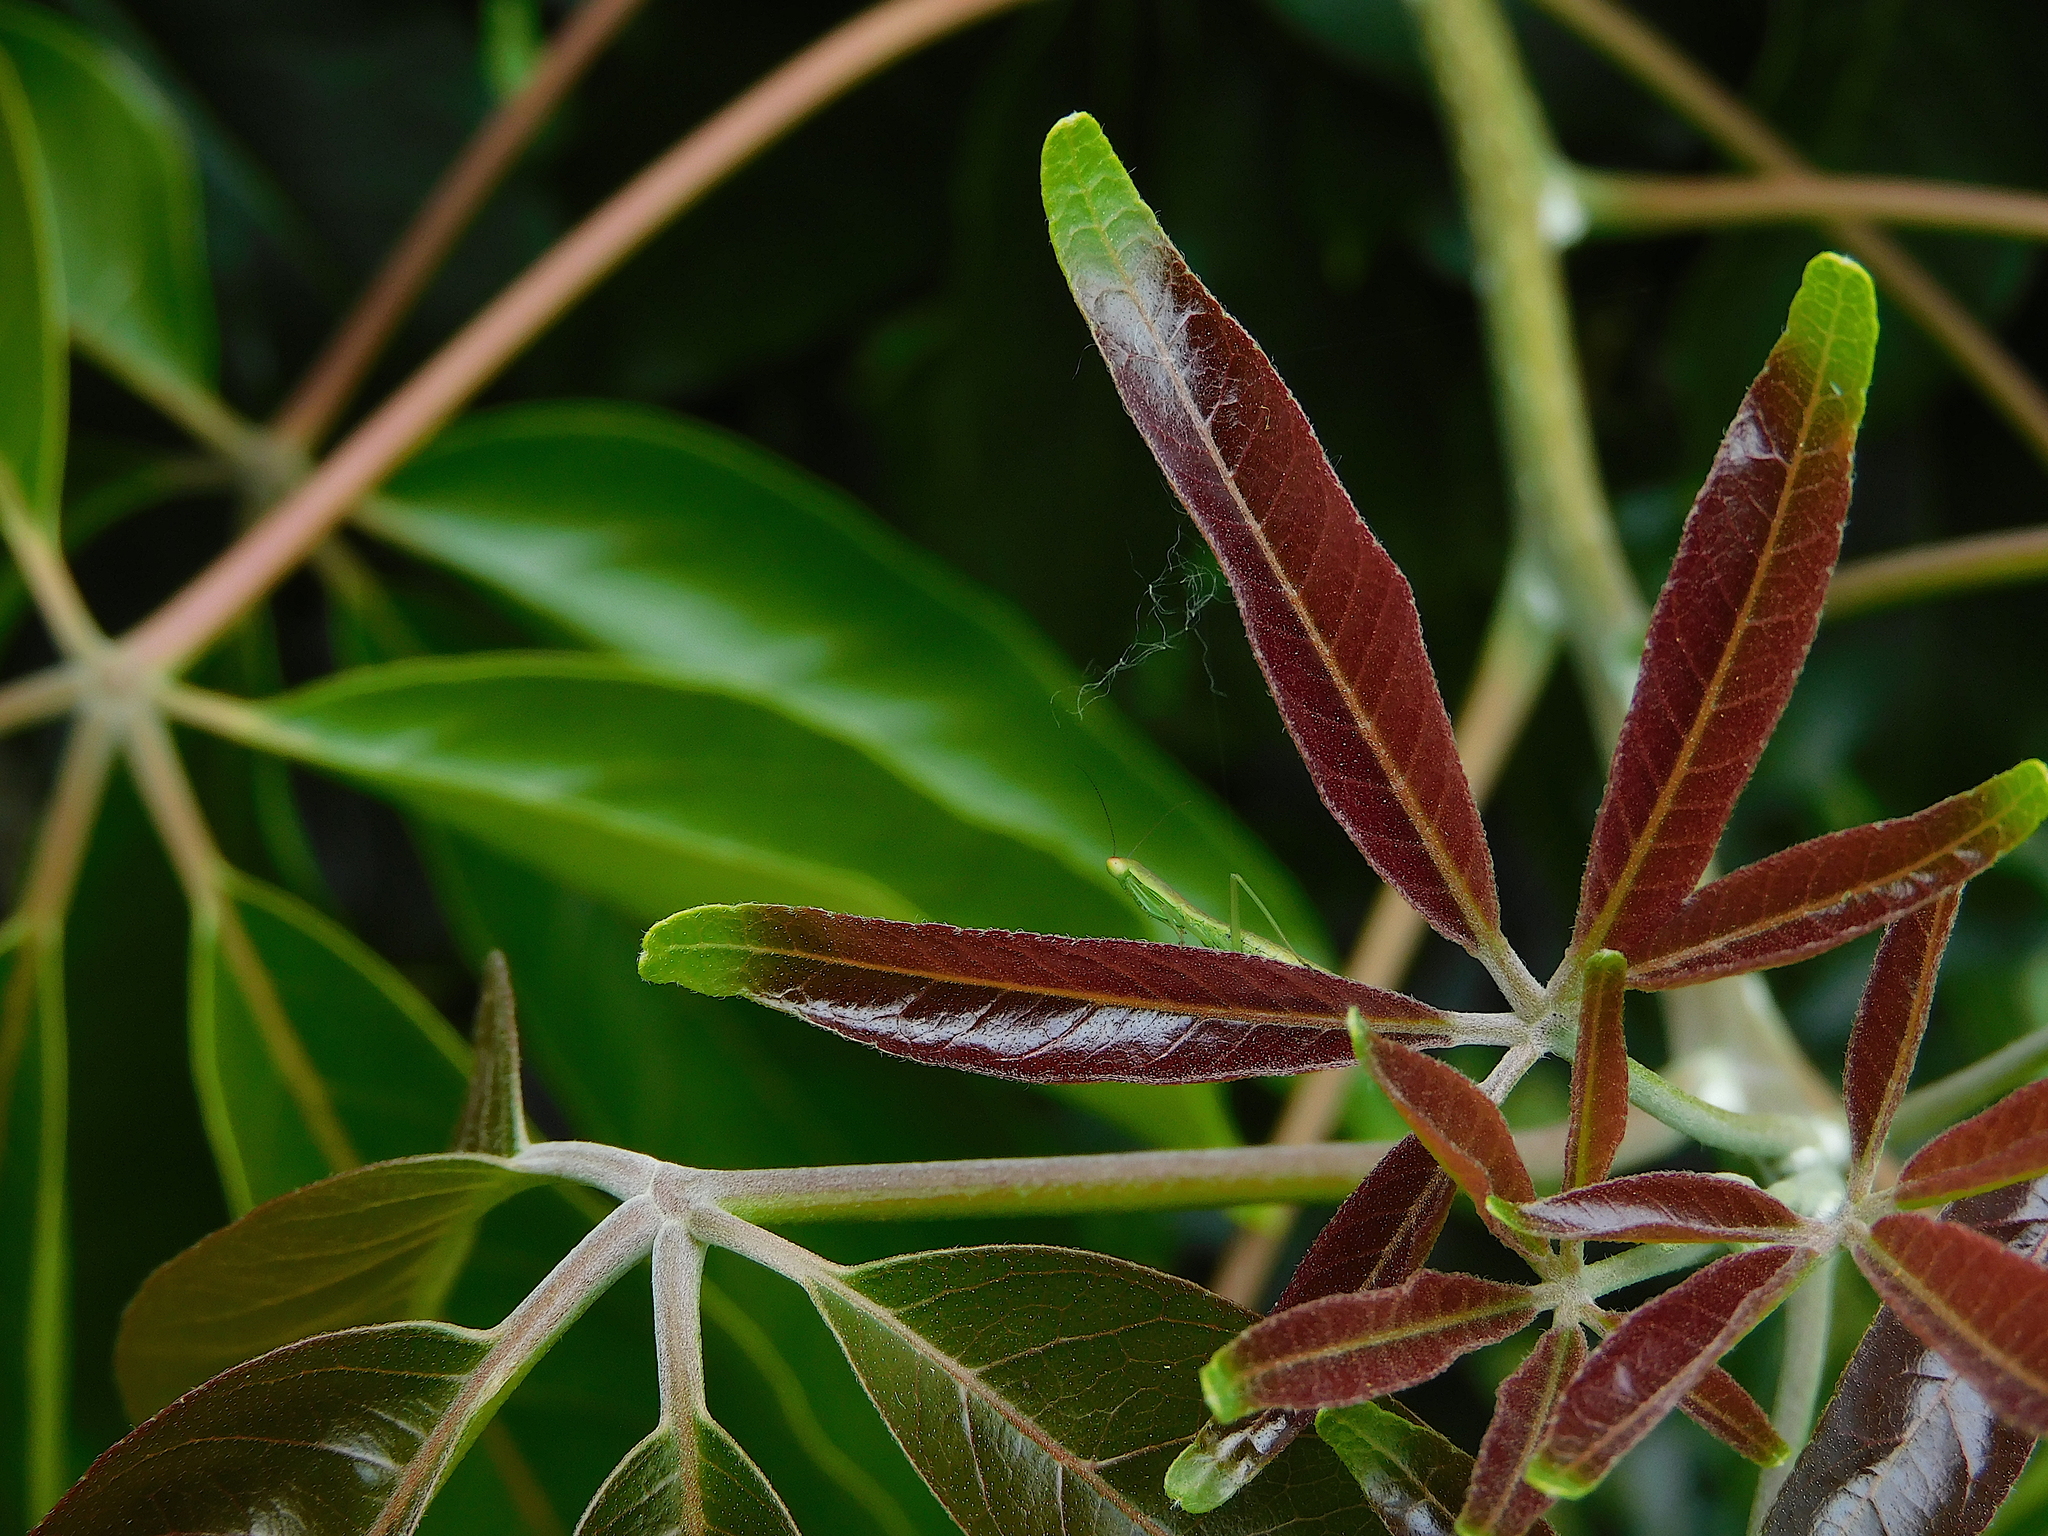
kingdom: Animalia
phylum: Arthropoda
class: Insecta
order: Mantodea
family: Mantidae
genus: Orthodera
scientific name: Orthodera novaezealandiae
